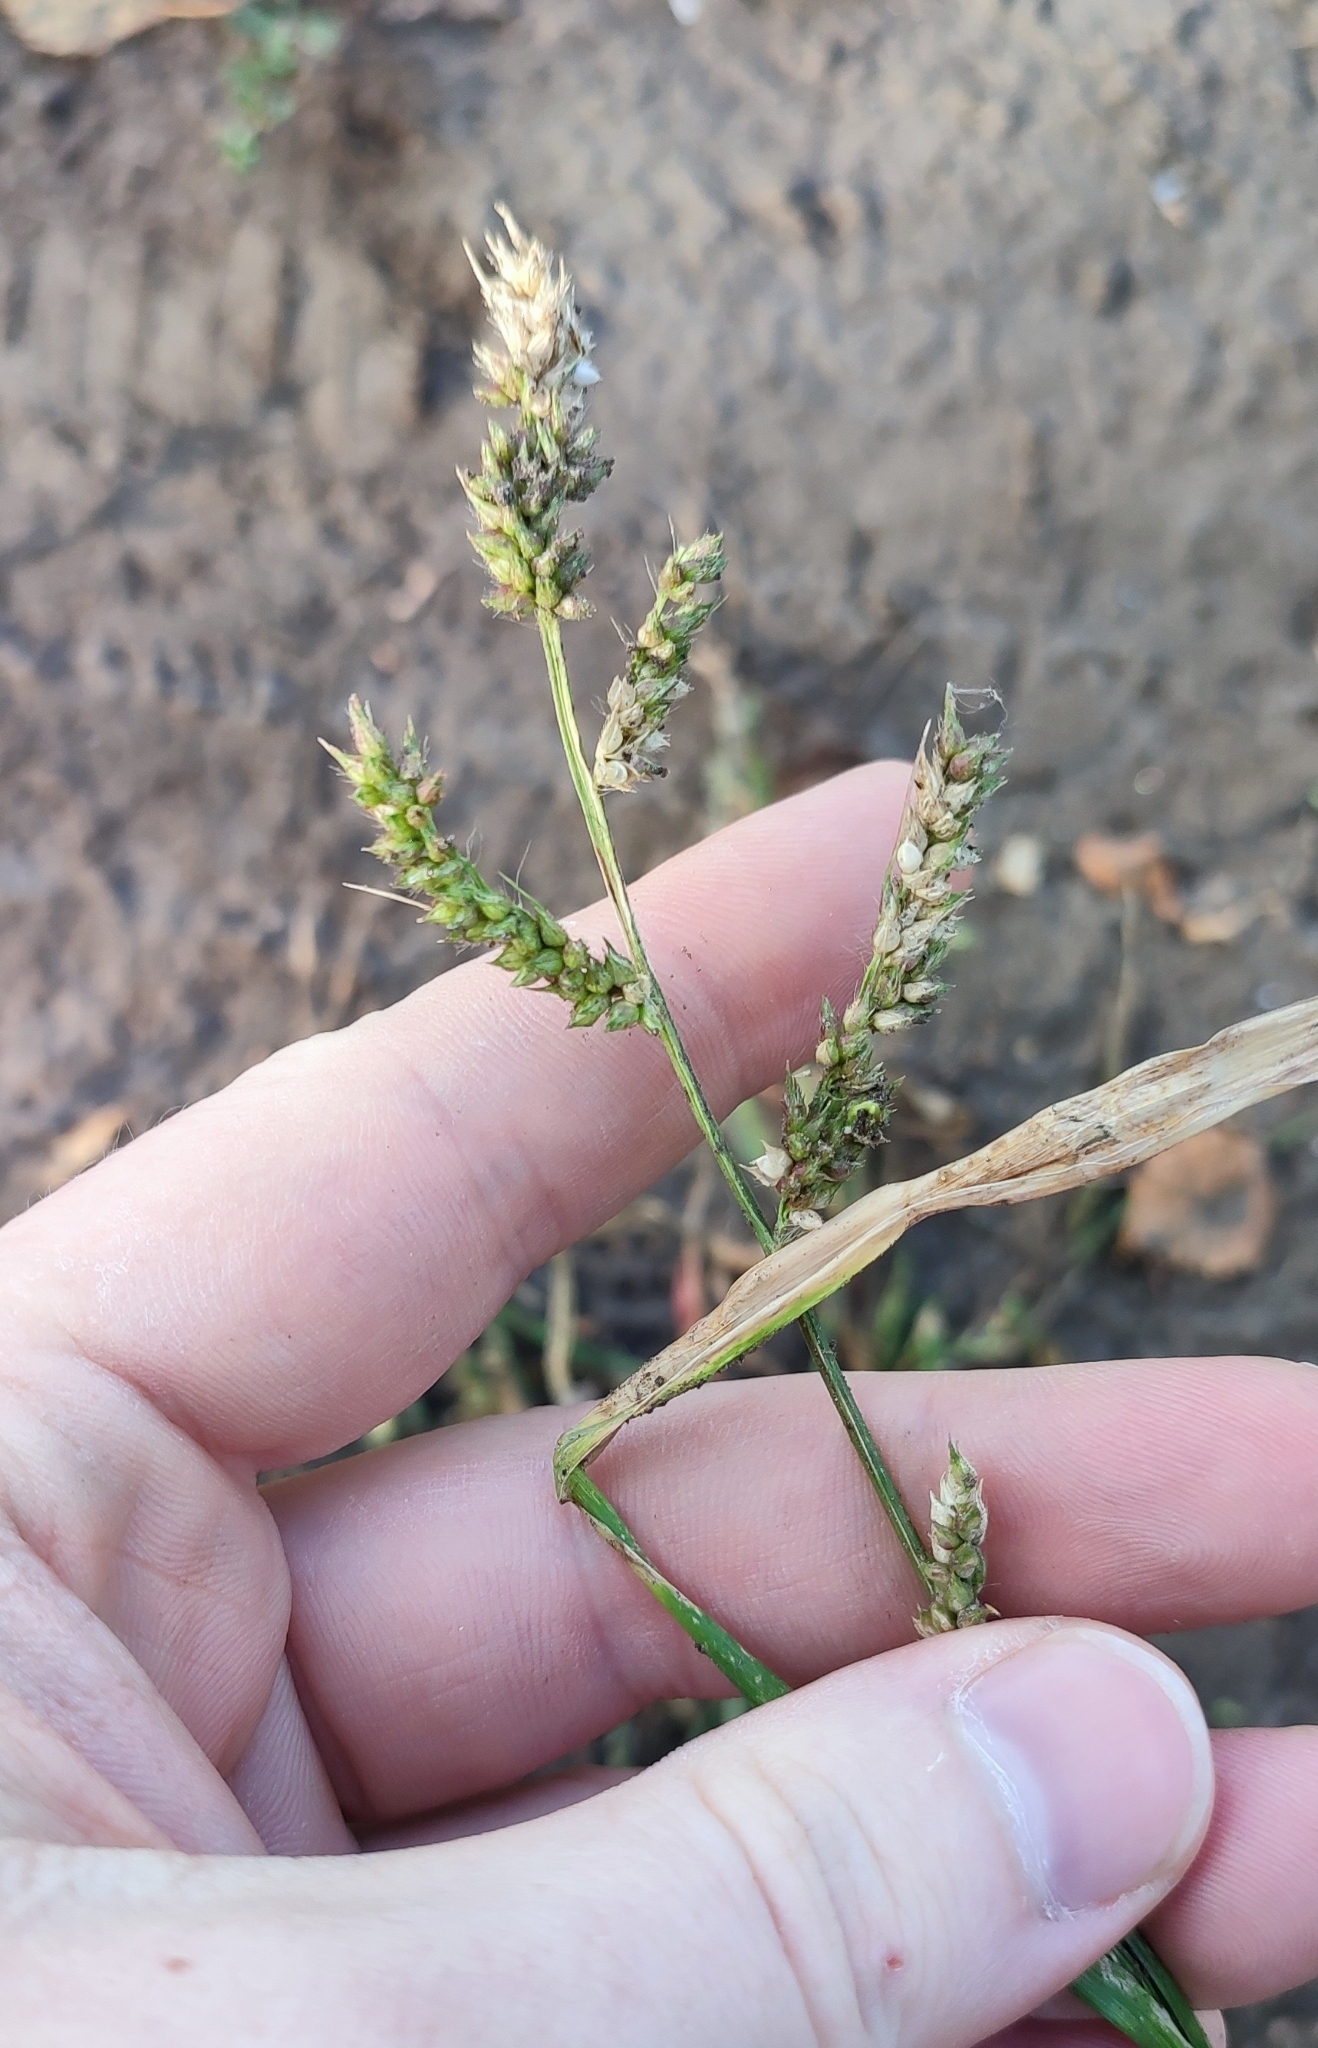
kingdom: Plantae
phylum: Tracheophyta
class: Liliopsida
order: Poales
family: Poaceae
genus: Echinochloa
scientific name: Echinochloa crus-galli
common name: Cockspur
